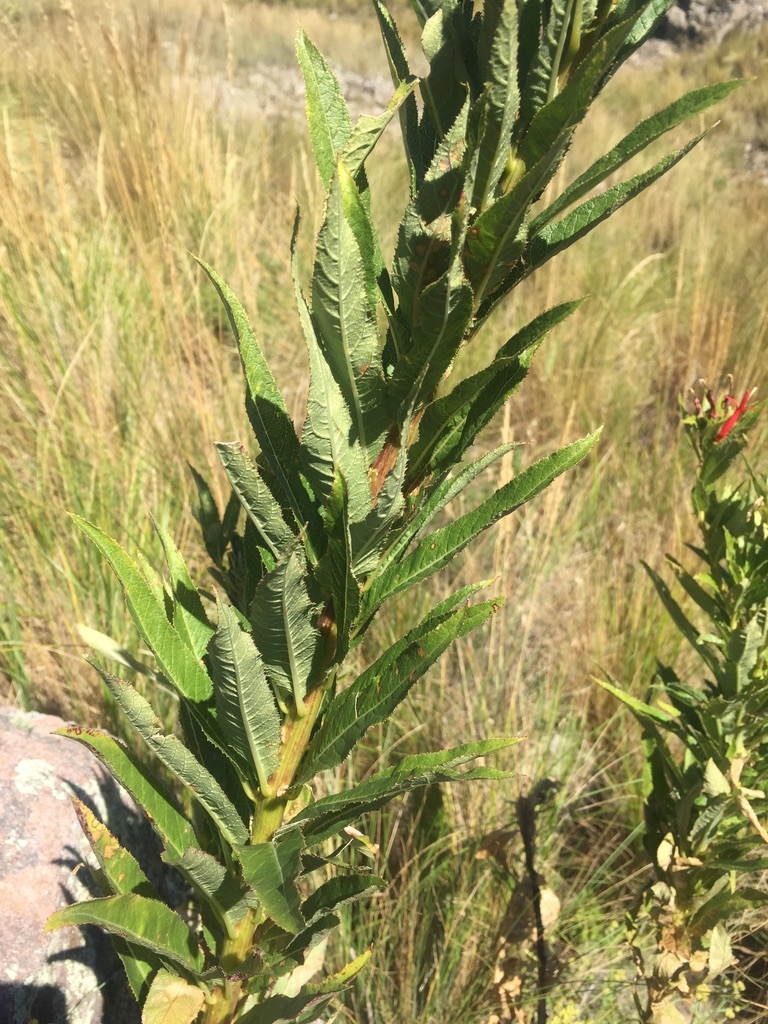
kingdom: Plantae
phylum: Tracheophyta
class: Magnoliopsida
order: Asterales
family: Campanulaceae
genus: Siphocampylus
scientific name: Siphocampylus foliosus
